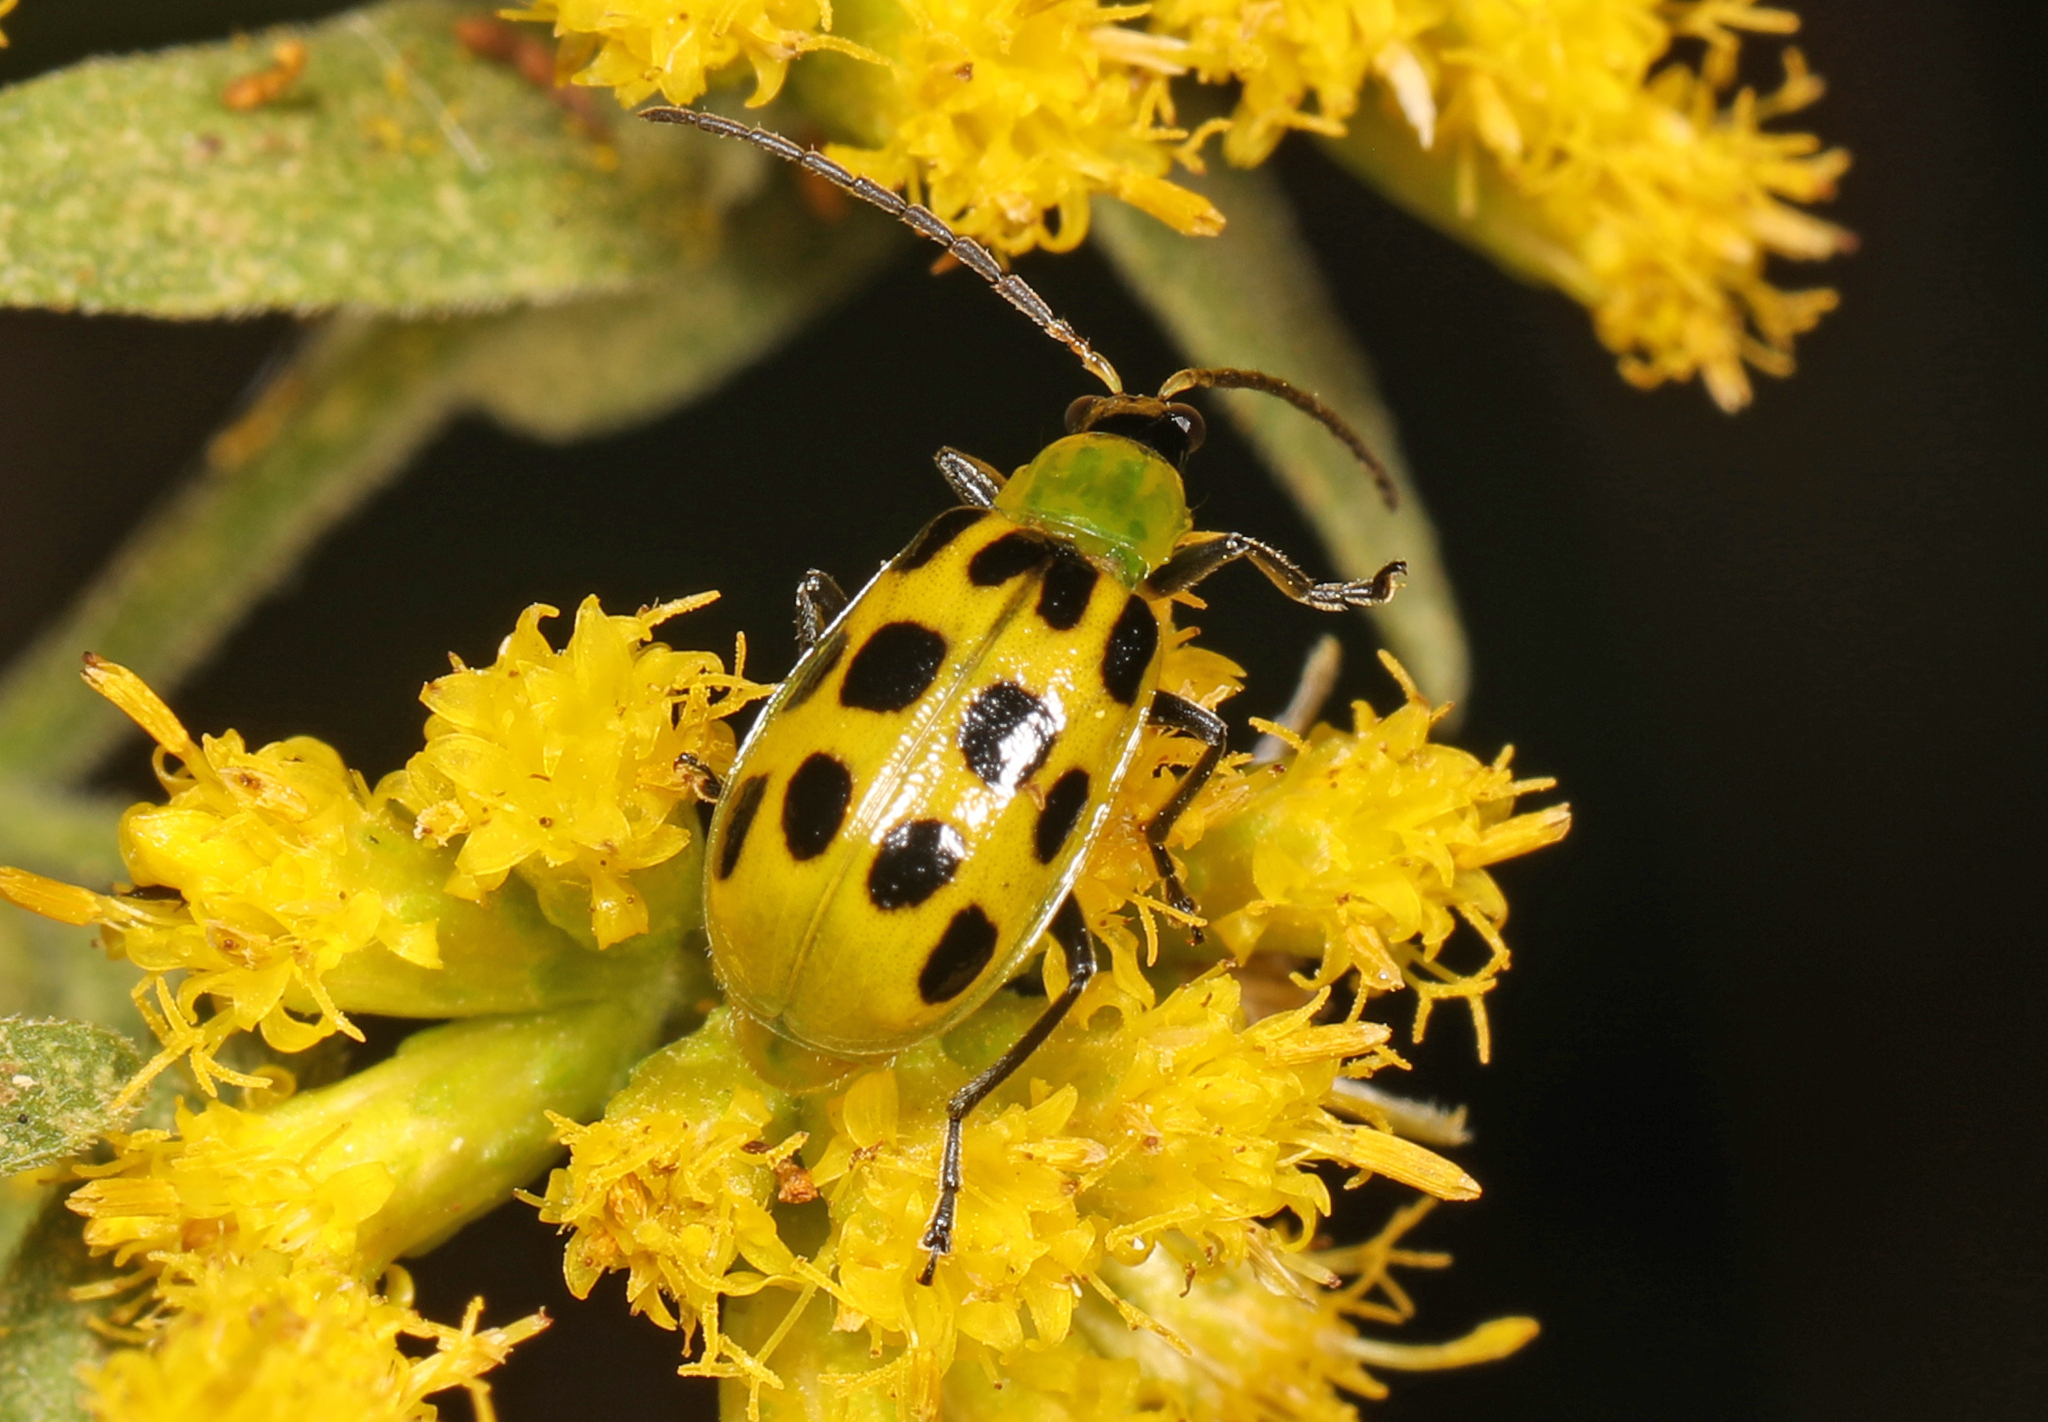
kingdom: Animalia
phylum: Arthropoda
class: Insecta
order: Coleoptera
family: Chrysomelidae
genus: Diabrotica
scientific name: Diabrotica undecimpunctata
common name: Spotted cucumber beetle
